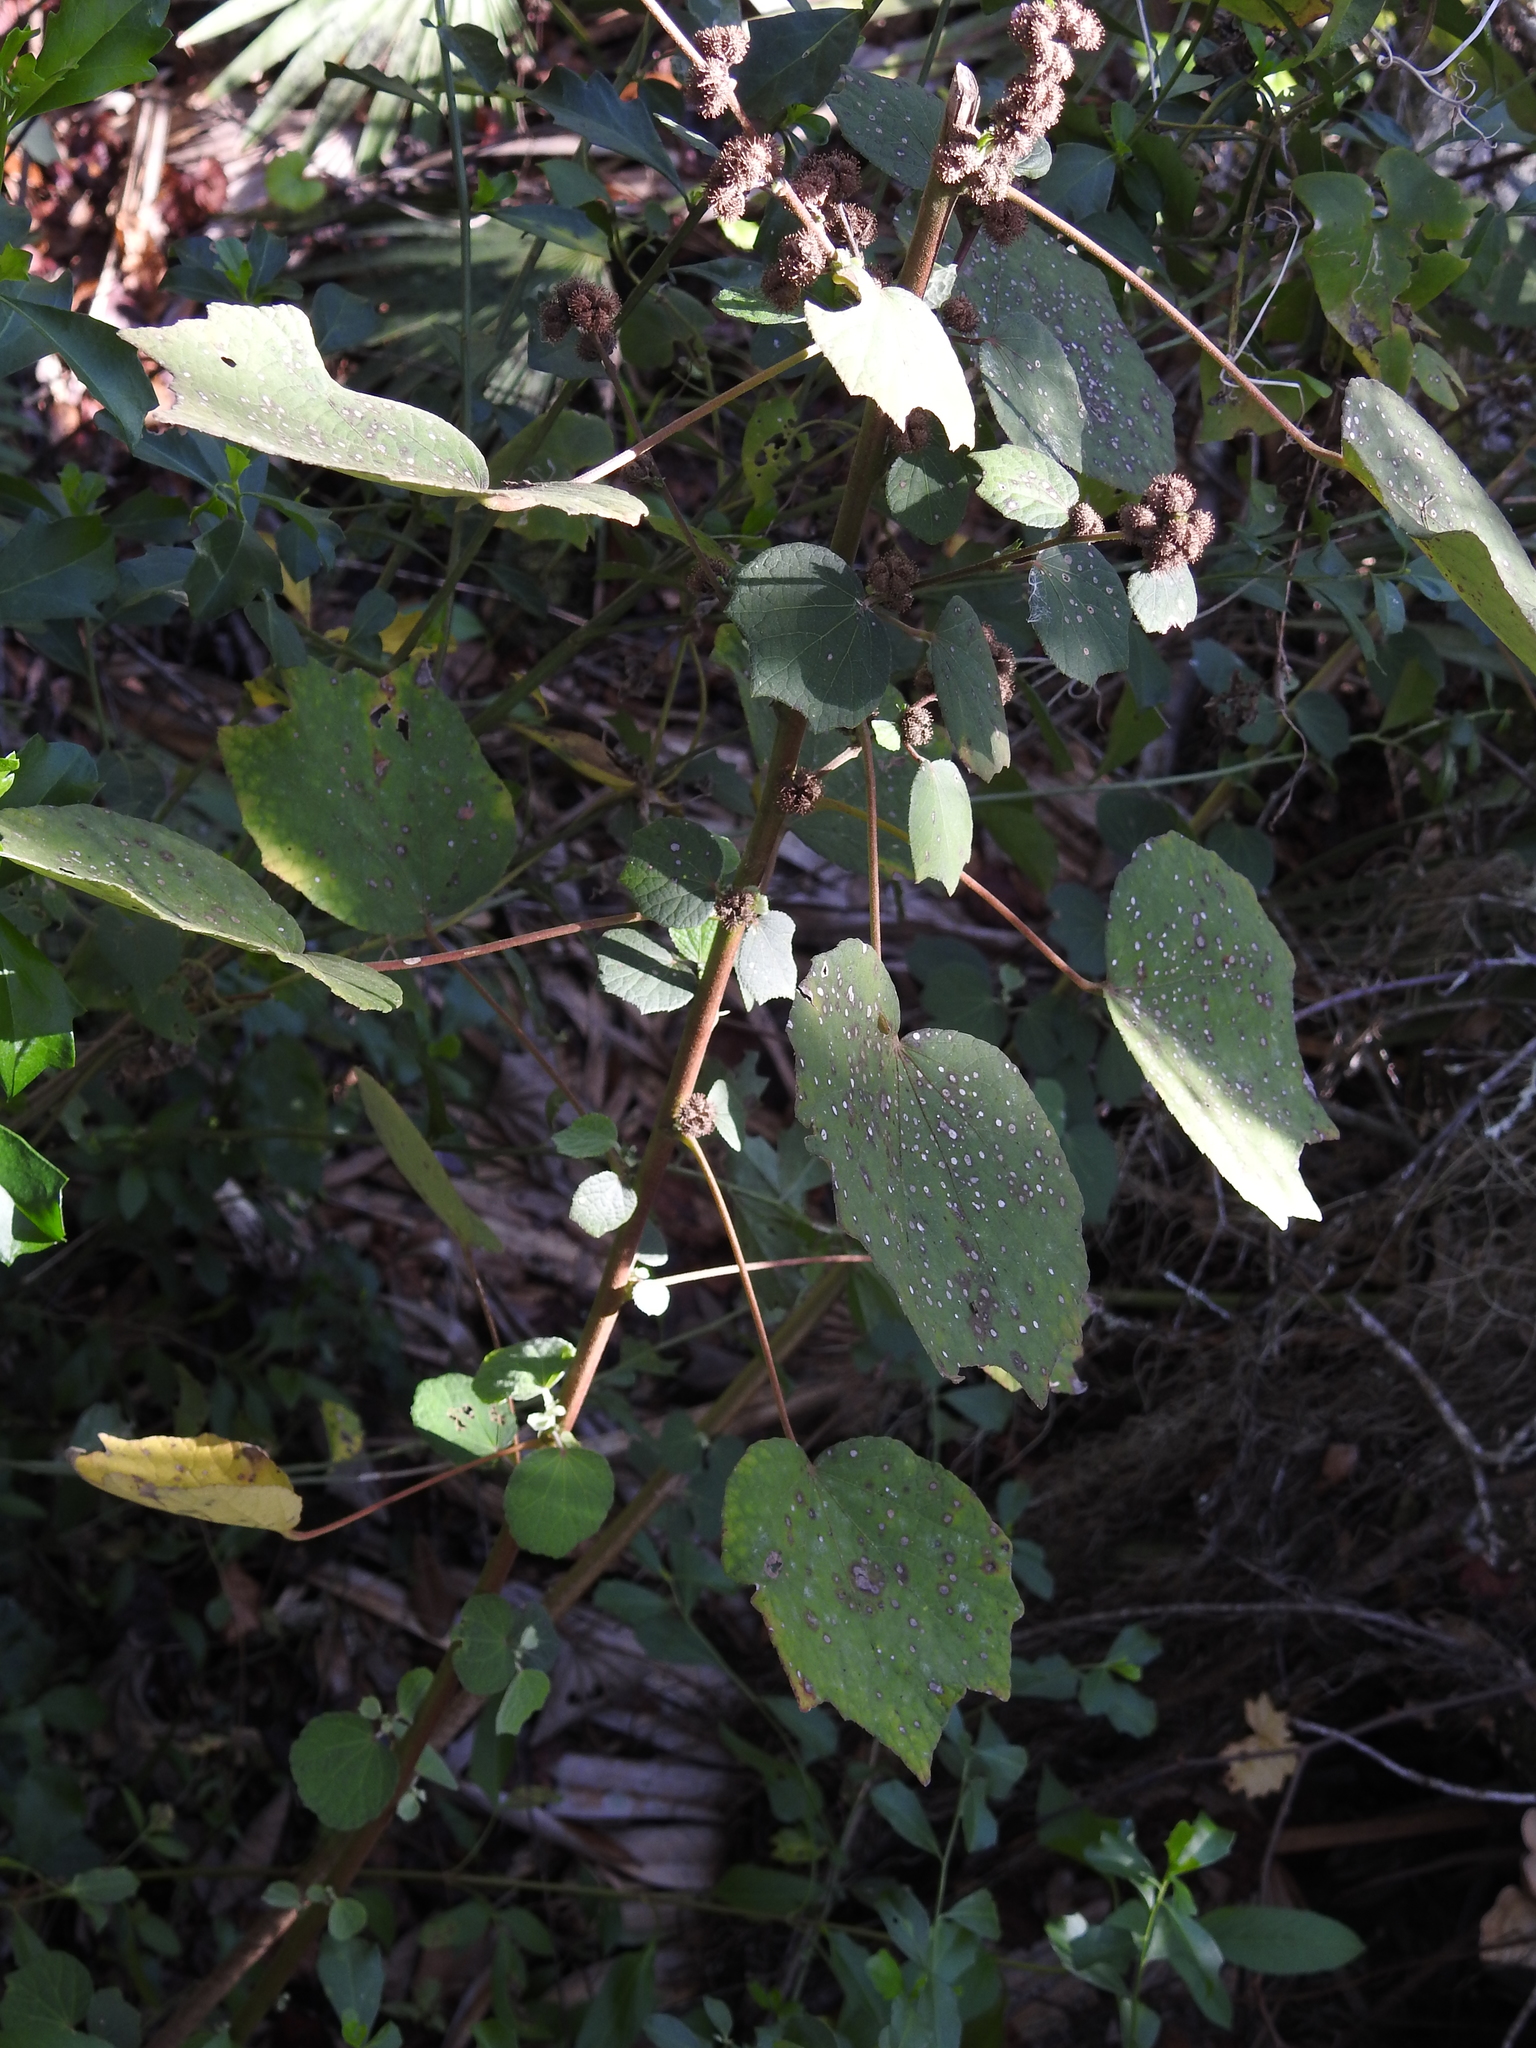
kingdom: Plantae
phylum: Tracheophyta
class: Magnoliopsida
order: Malvales
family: Malvaceae
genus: Urena
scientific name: Urena lobata
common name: Caesarweed
